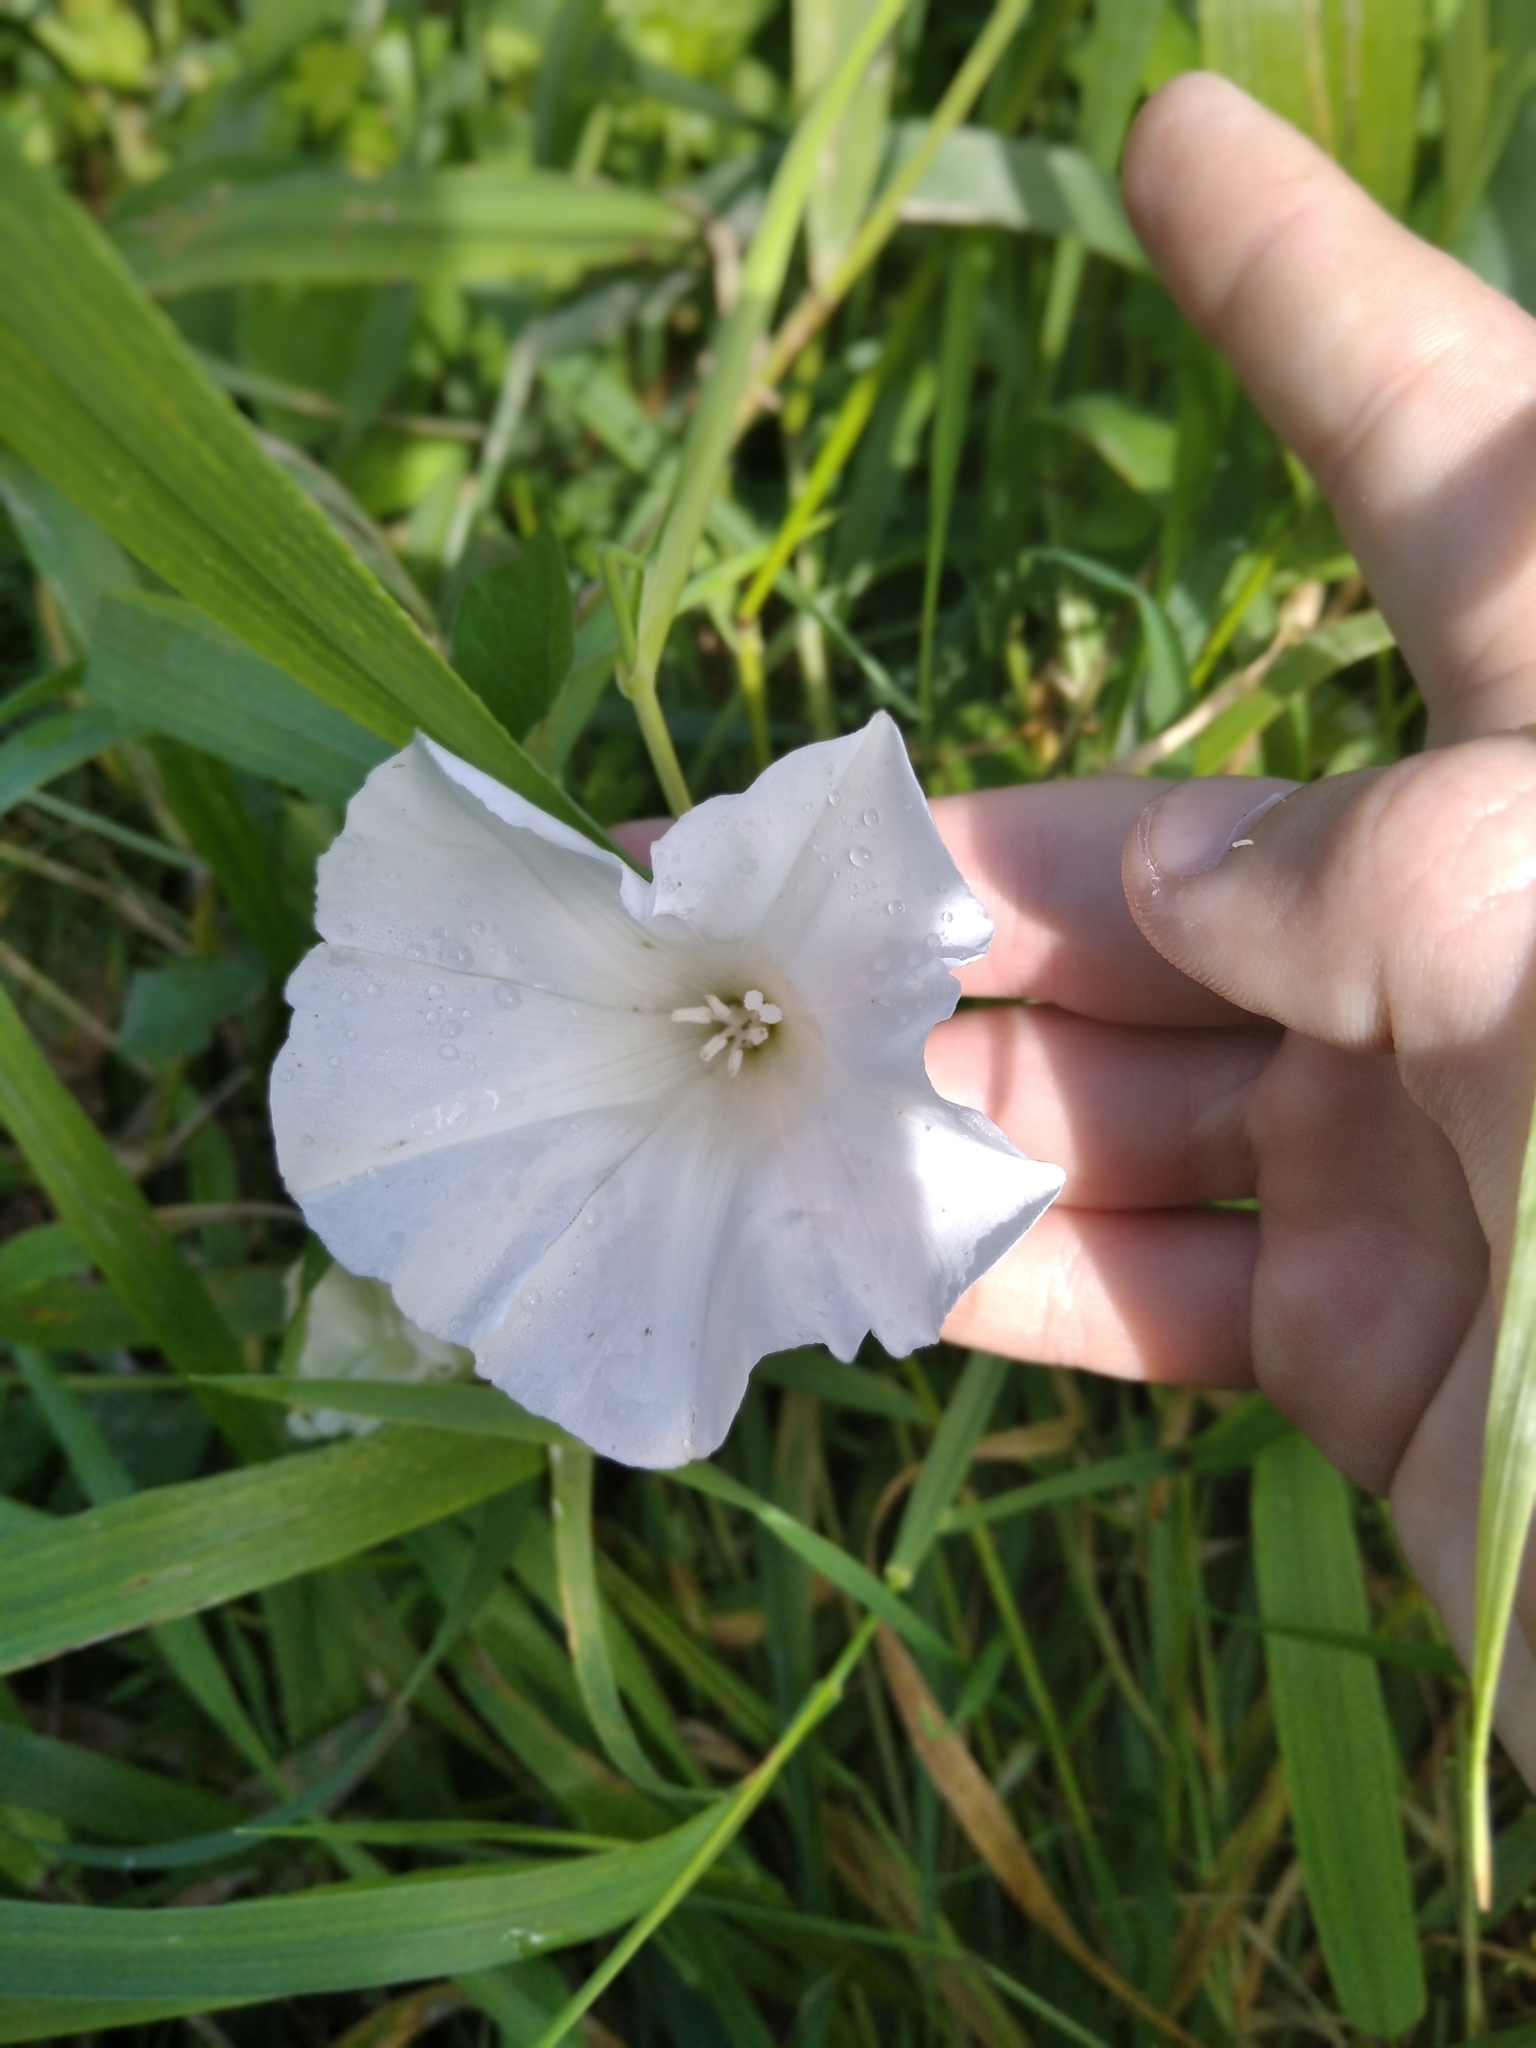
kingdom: Plantae
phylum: Tracheophyta
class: Magnoliopsida
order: Solanales
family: Convolvulaceae
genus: Calystegia
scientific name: Calystegia sepium
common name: Hedge bindweed
